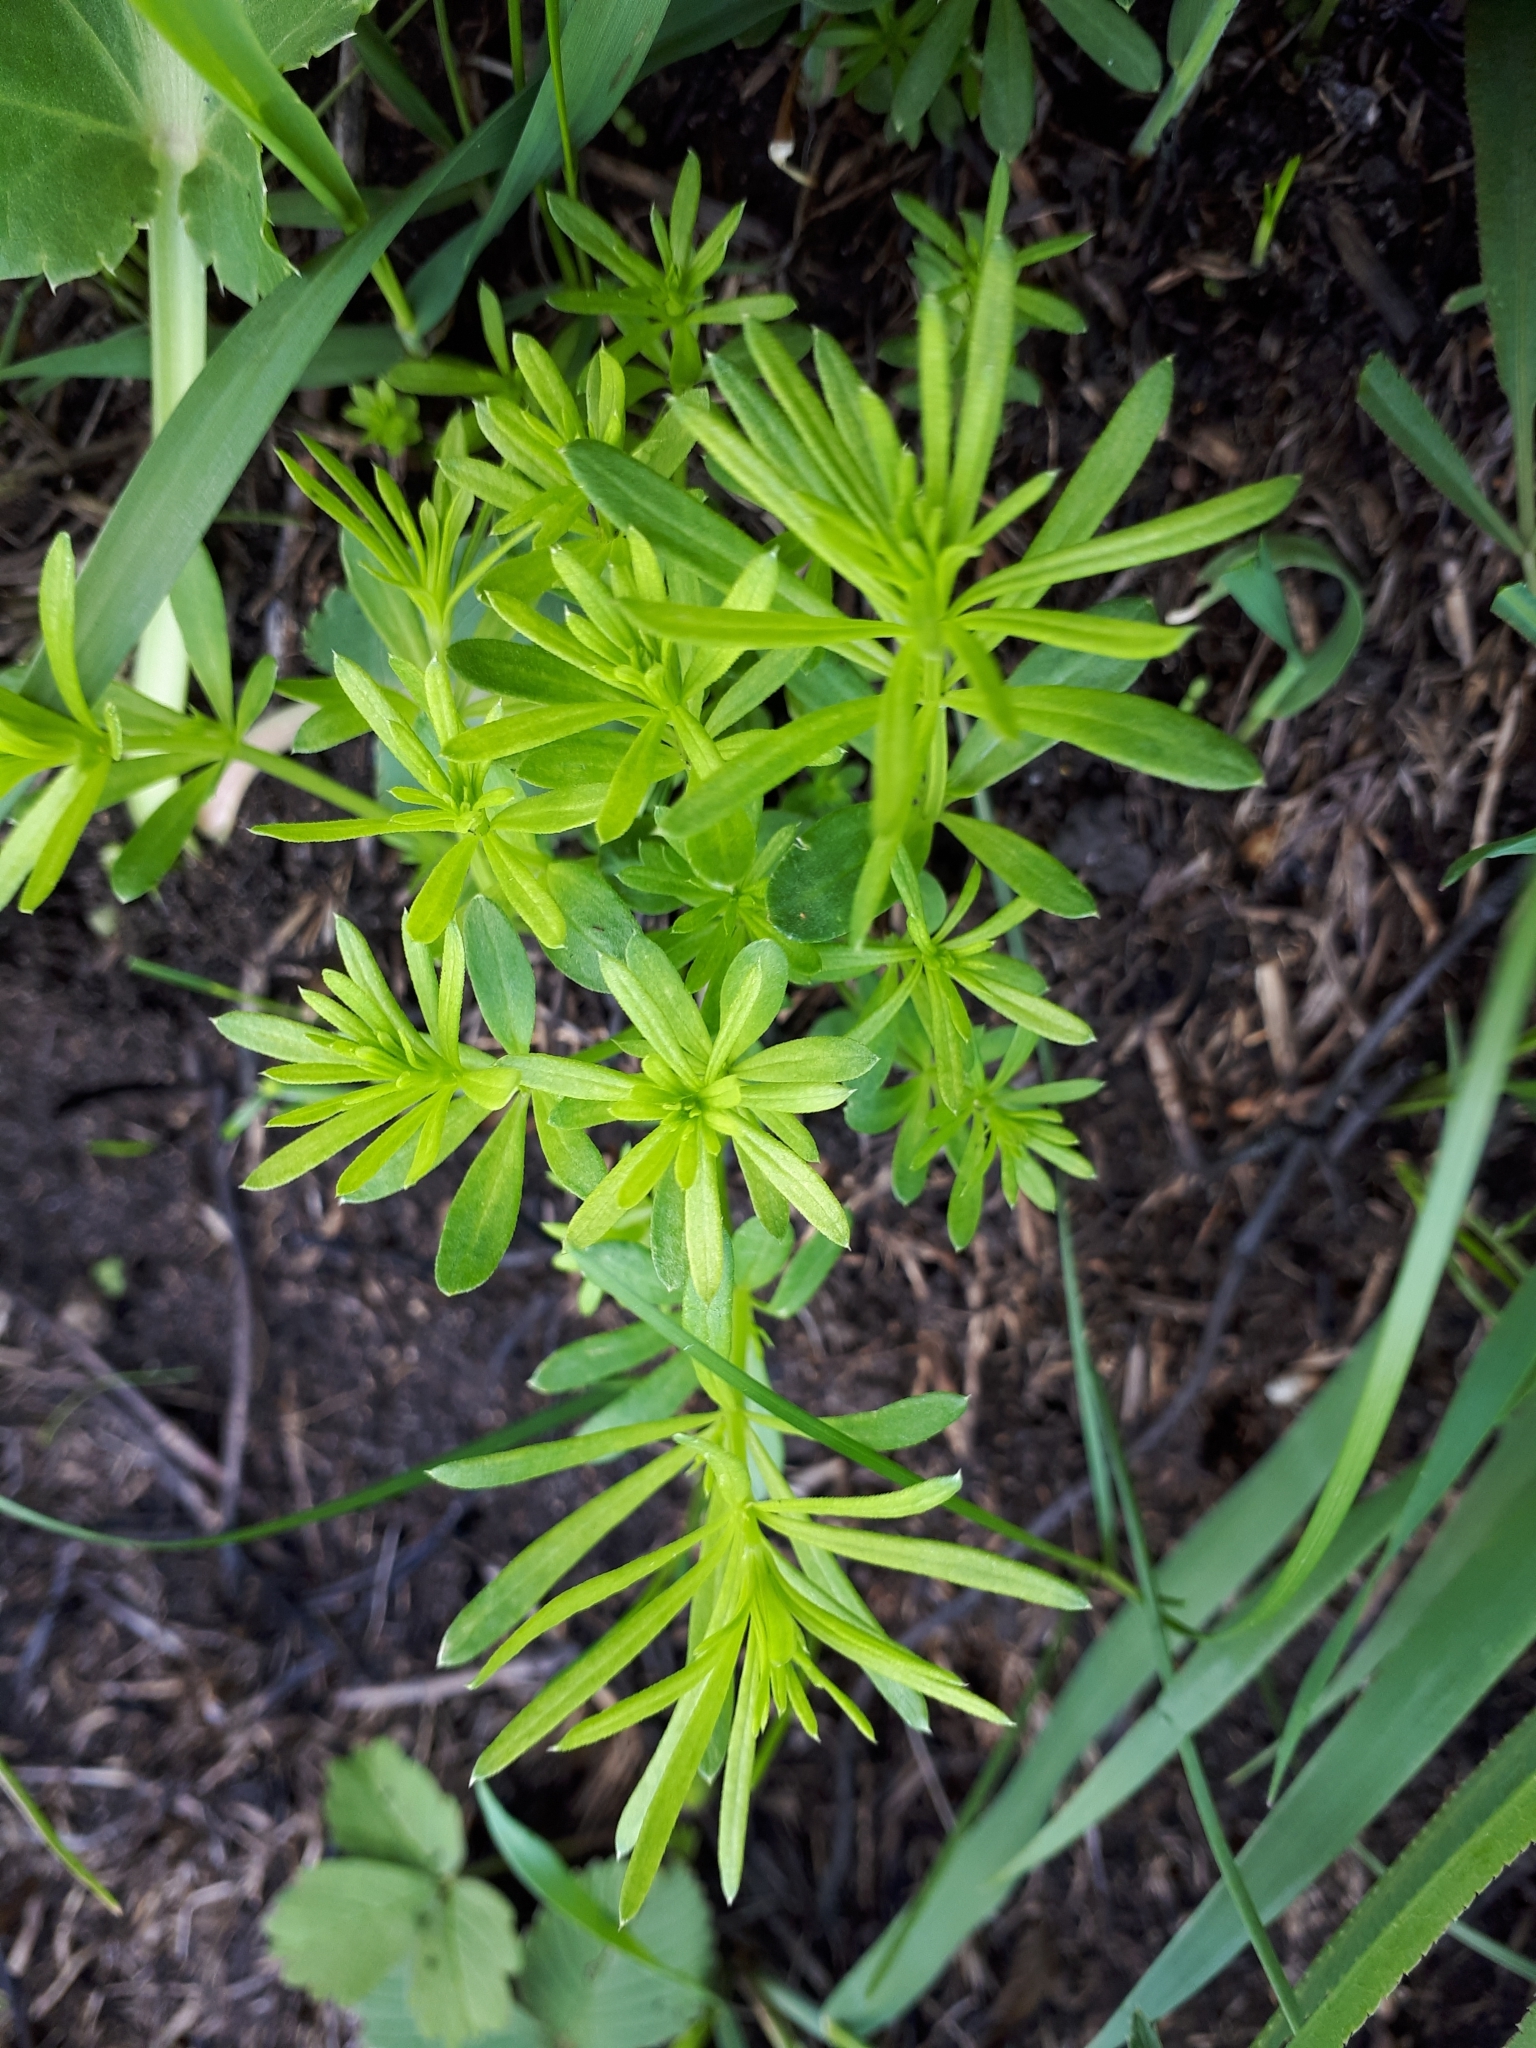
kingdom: Plantae
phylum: Tracheophyta
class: Magnoliopsida
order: Gentianales
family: Rubiaceae
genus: Galium
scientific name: Galium mollugo
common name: Hedge bedstraw
